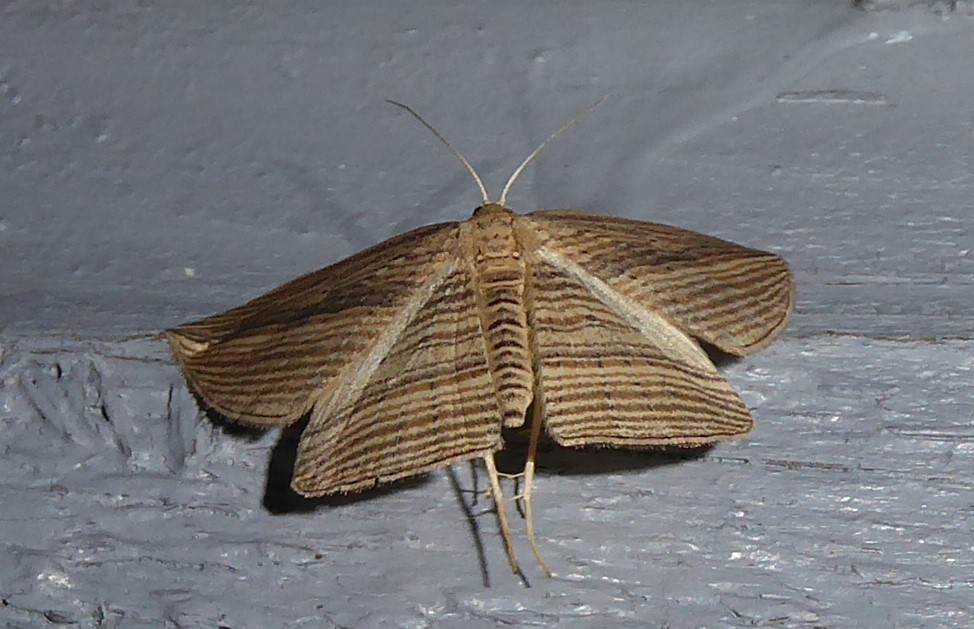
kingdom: Animalia
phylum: Arthropoda
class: Insecta
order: Lepidoptera
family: Geometridae
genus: Epiphryne
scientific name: Epiphryne verriculata
